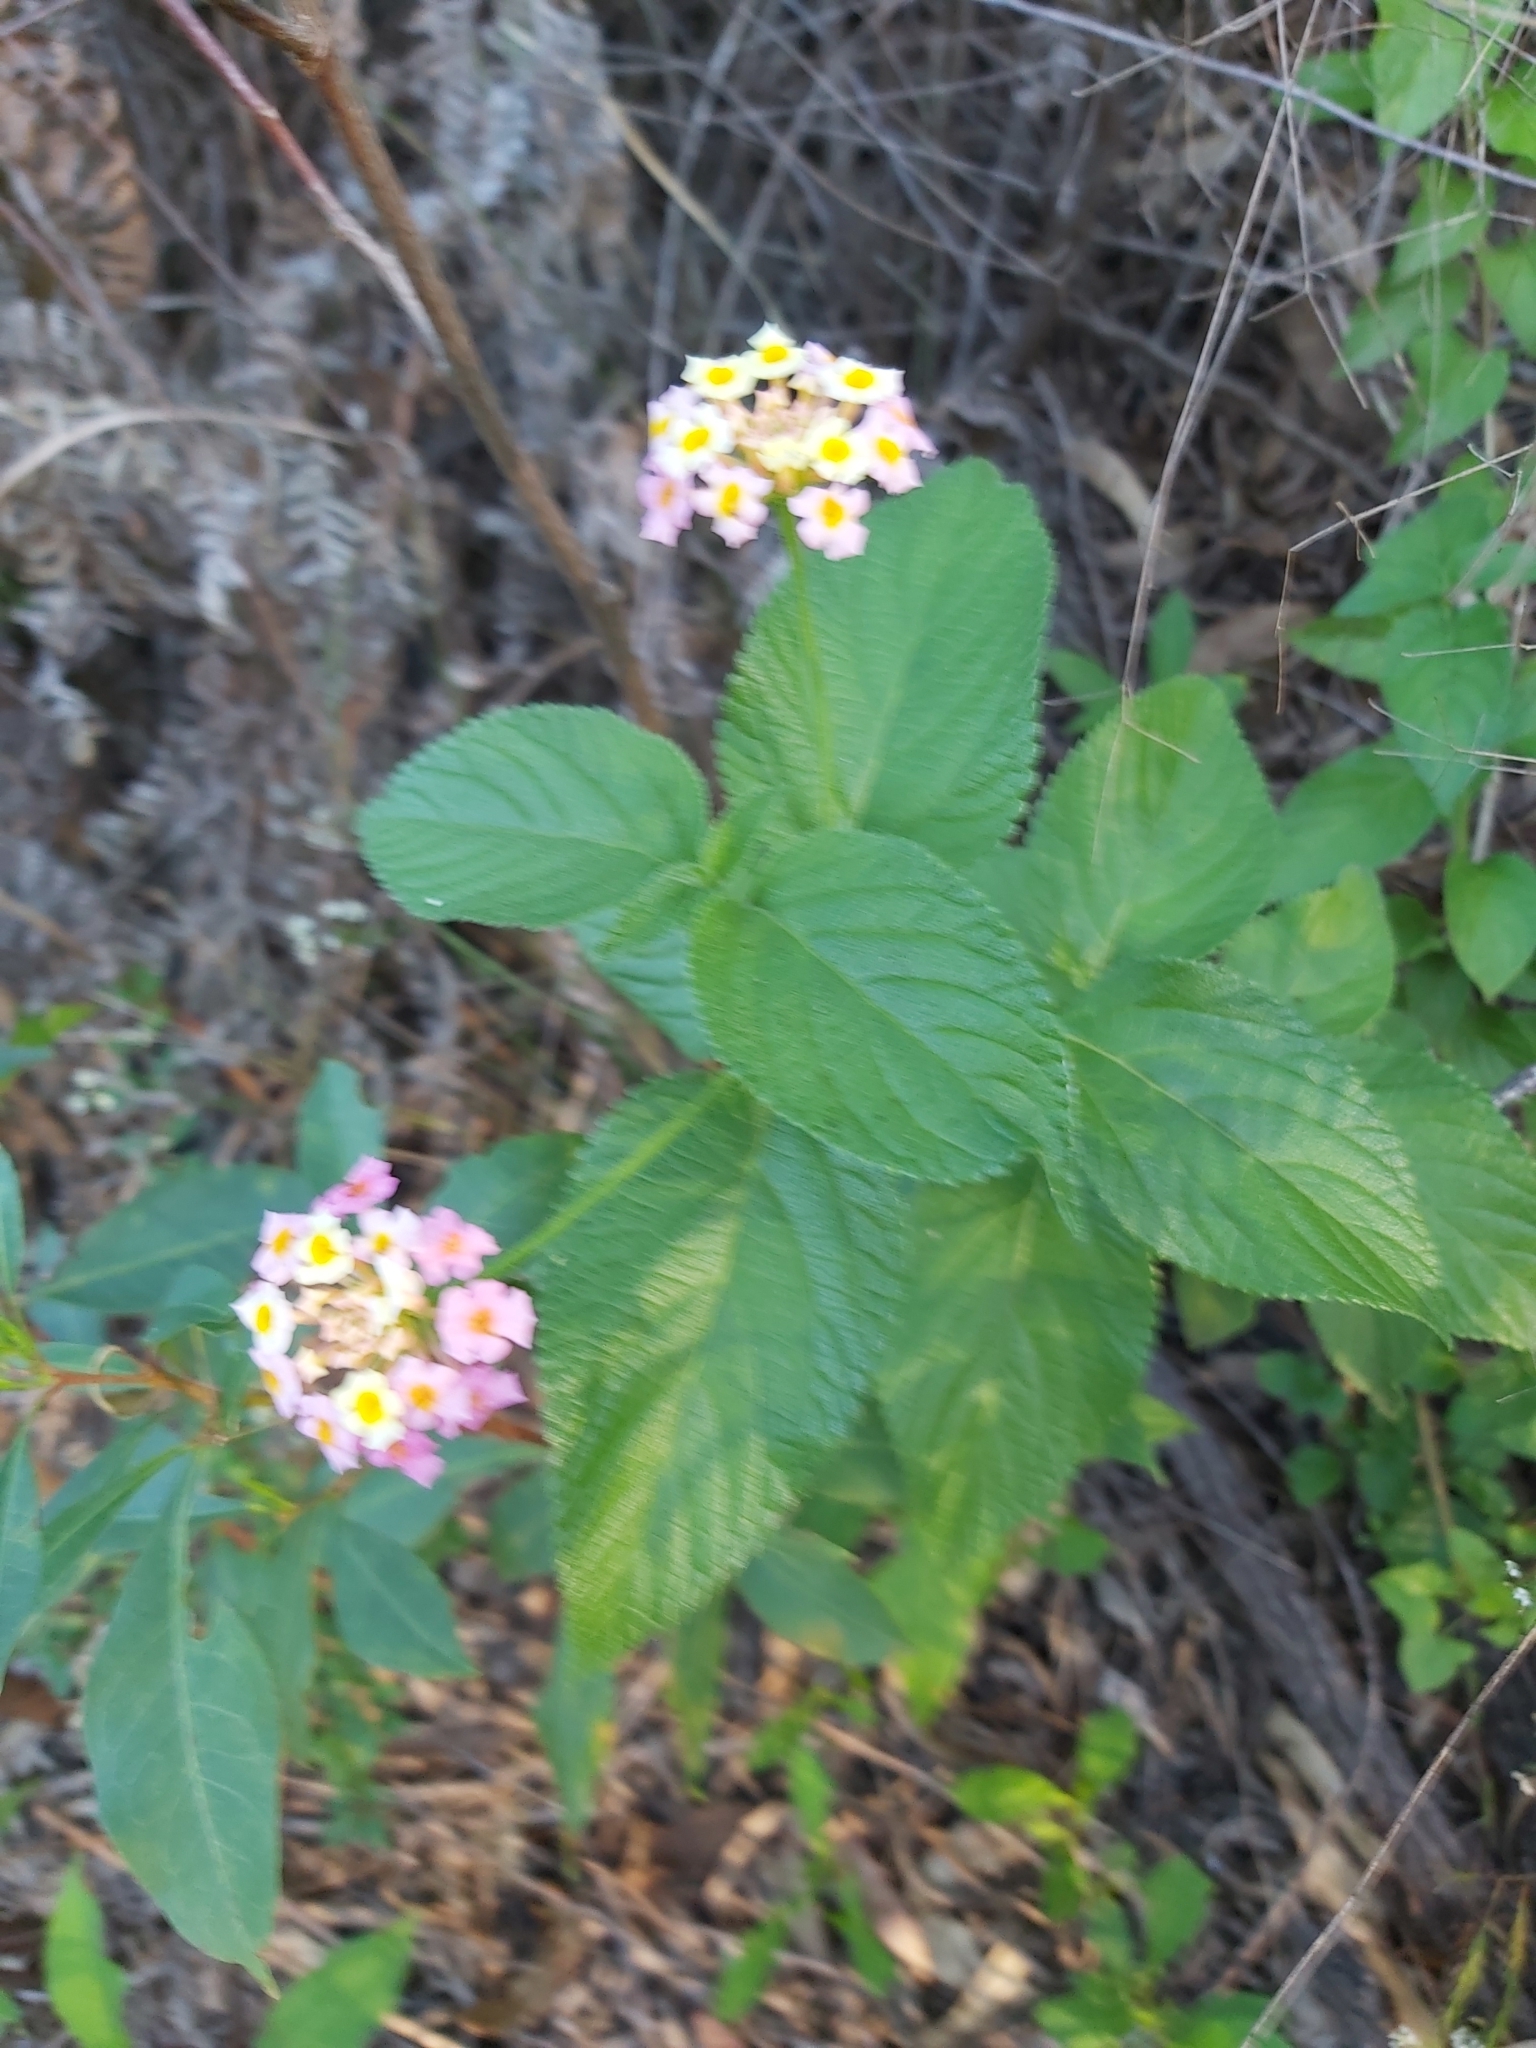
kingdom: Plantae
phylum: Tracheophyta
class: Magnoliopsida
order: Lamiales
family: Verbenaceae
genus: Lantana
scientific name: Lantana camara
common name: Lantana
